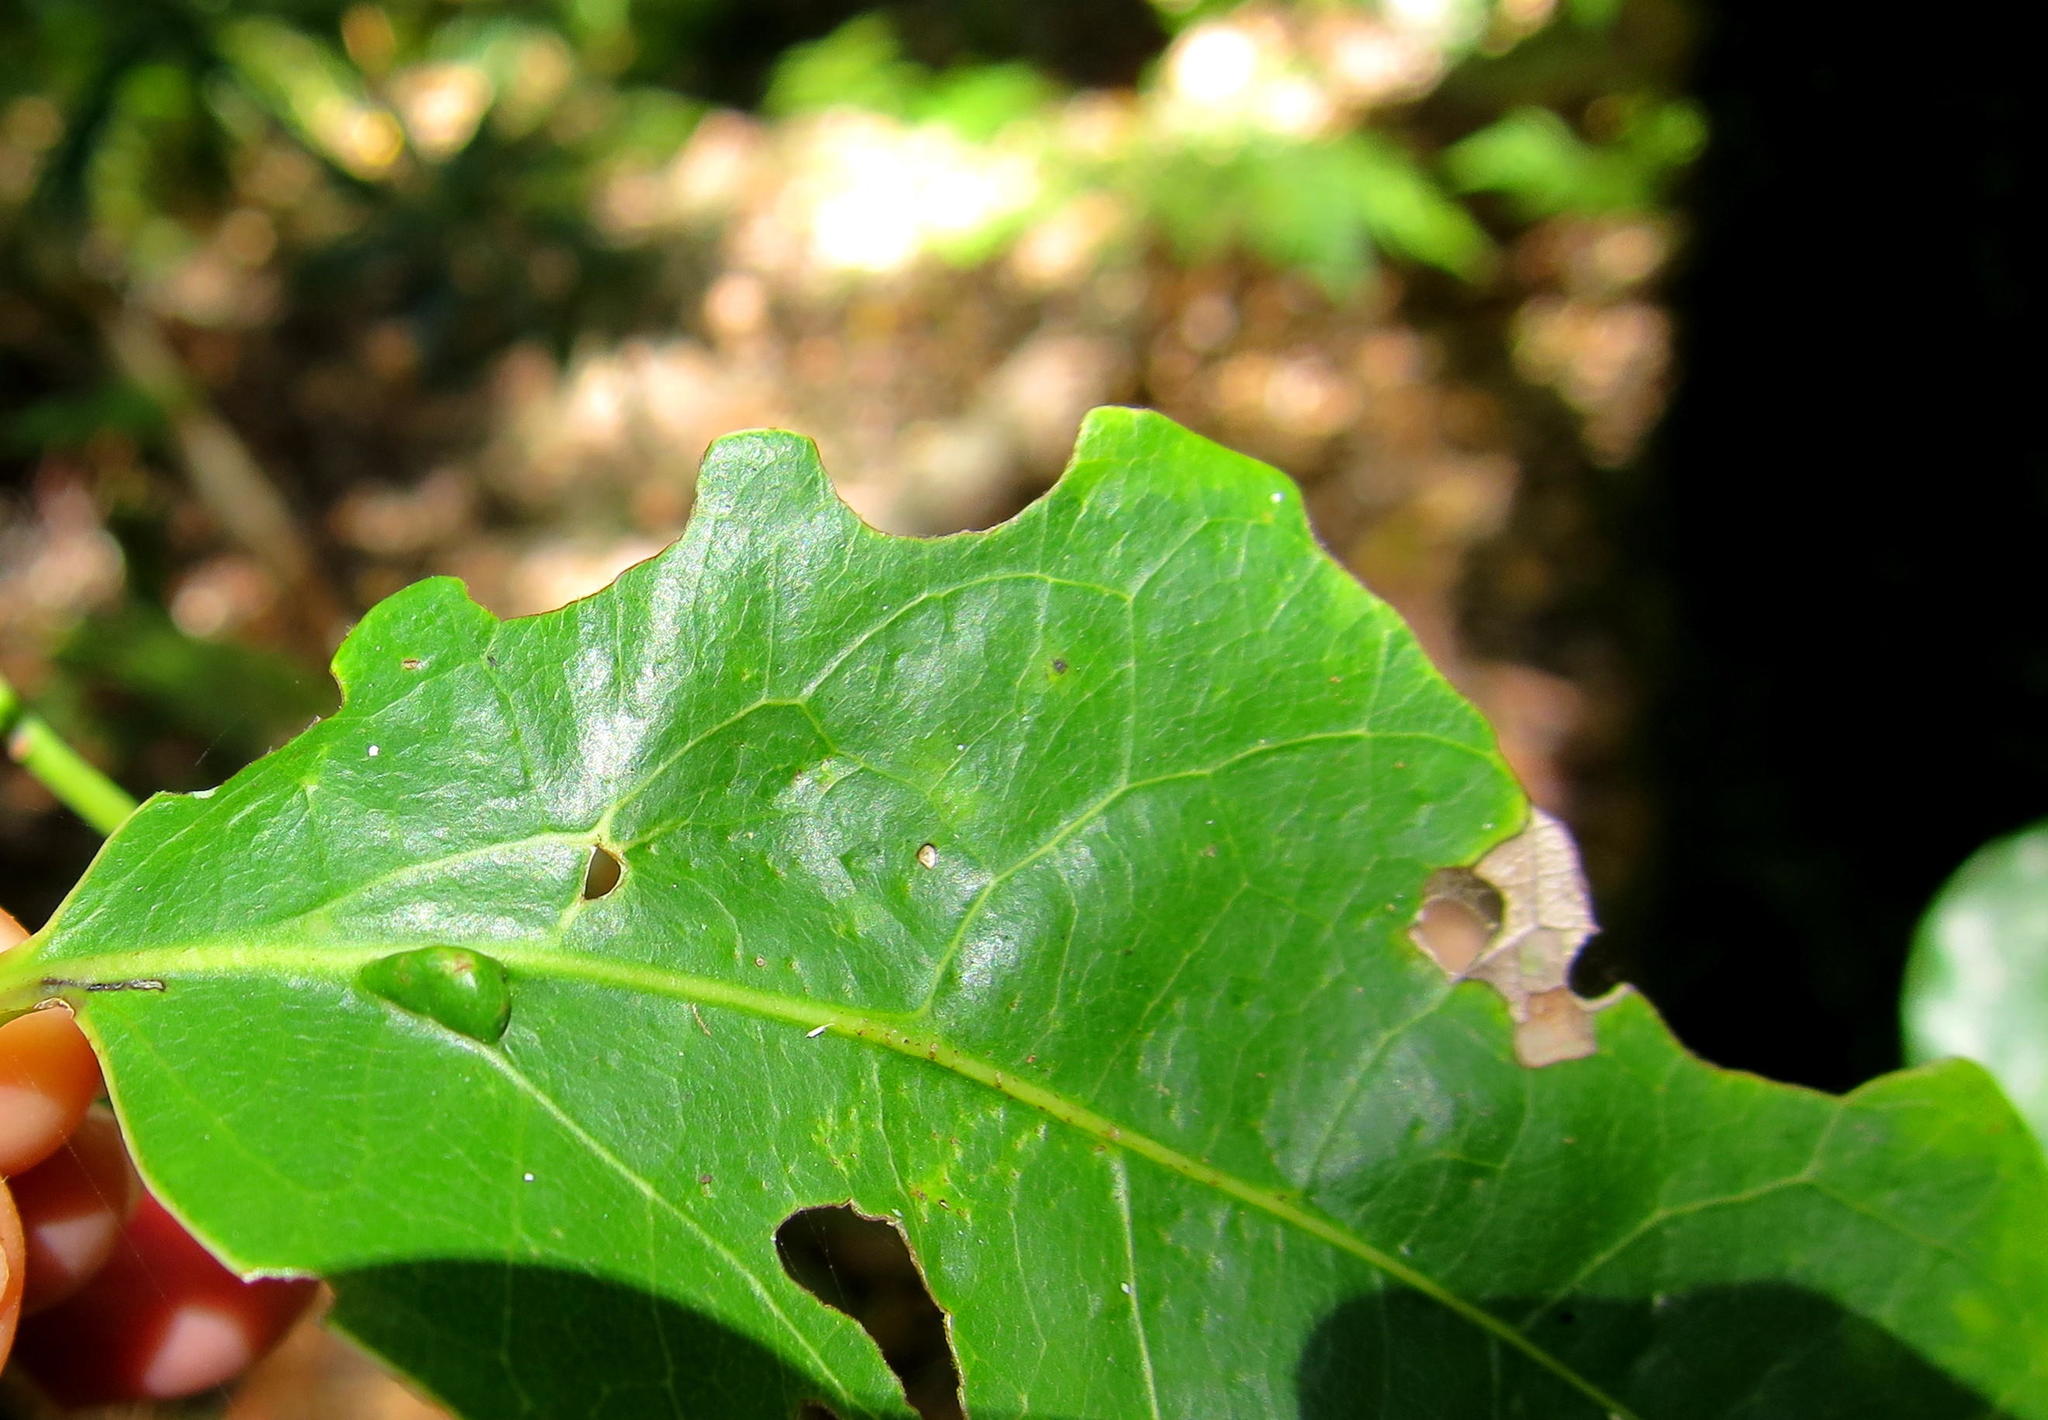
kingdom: Plantae
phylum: Tracheophyta
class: Magnoliopsida
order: Laurales
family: Lauraceae
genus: Ocotea
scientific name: Ocotea bullata
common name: Black stinkwood
